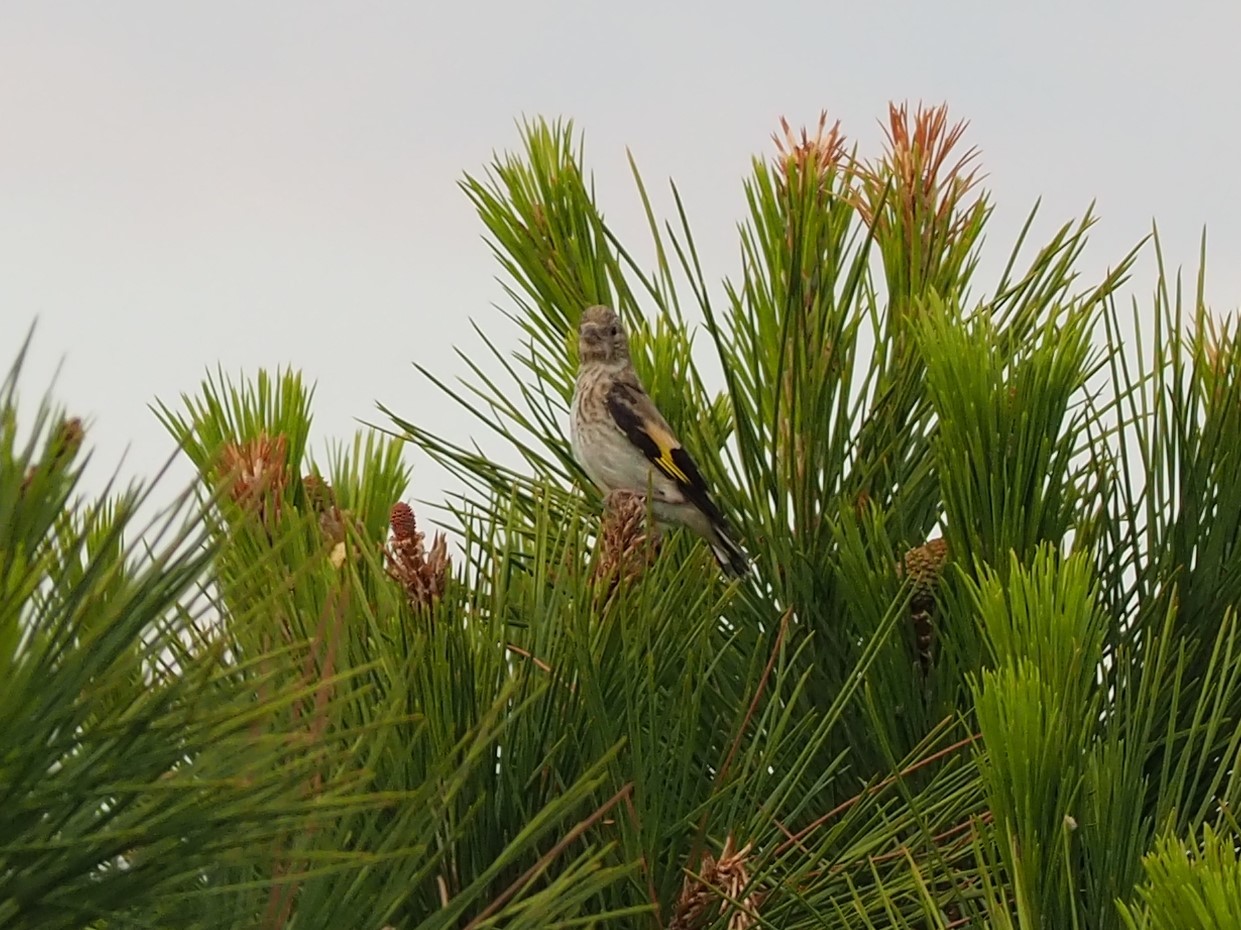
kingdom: Animalia
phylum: Chordata
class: Aves
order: Passeriformes
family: Fringillidae
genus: Carduelis
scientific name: Carduelis carduelis
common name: European goldfinch
